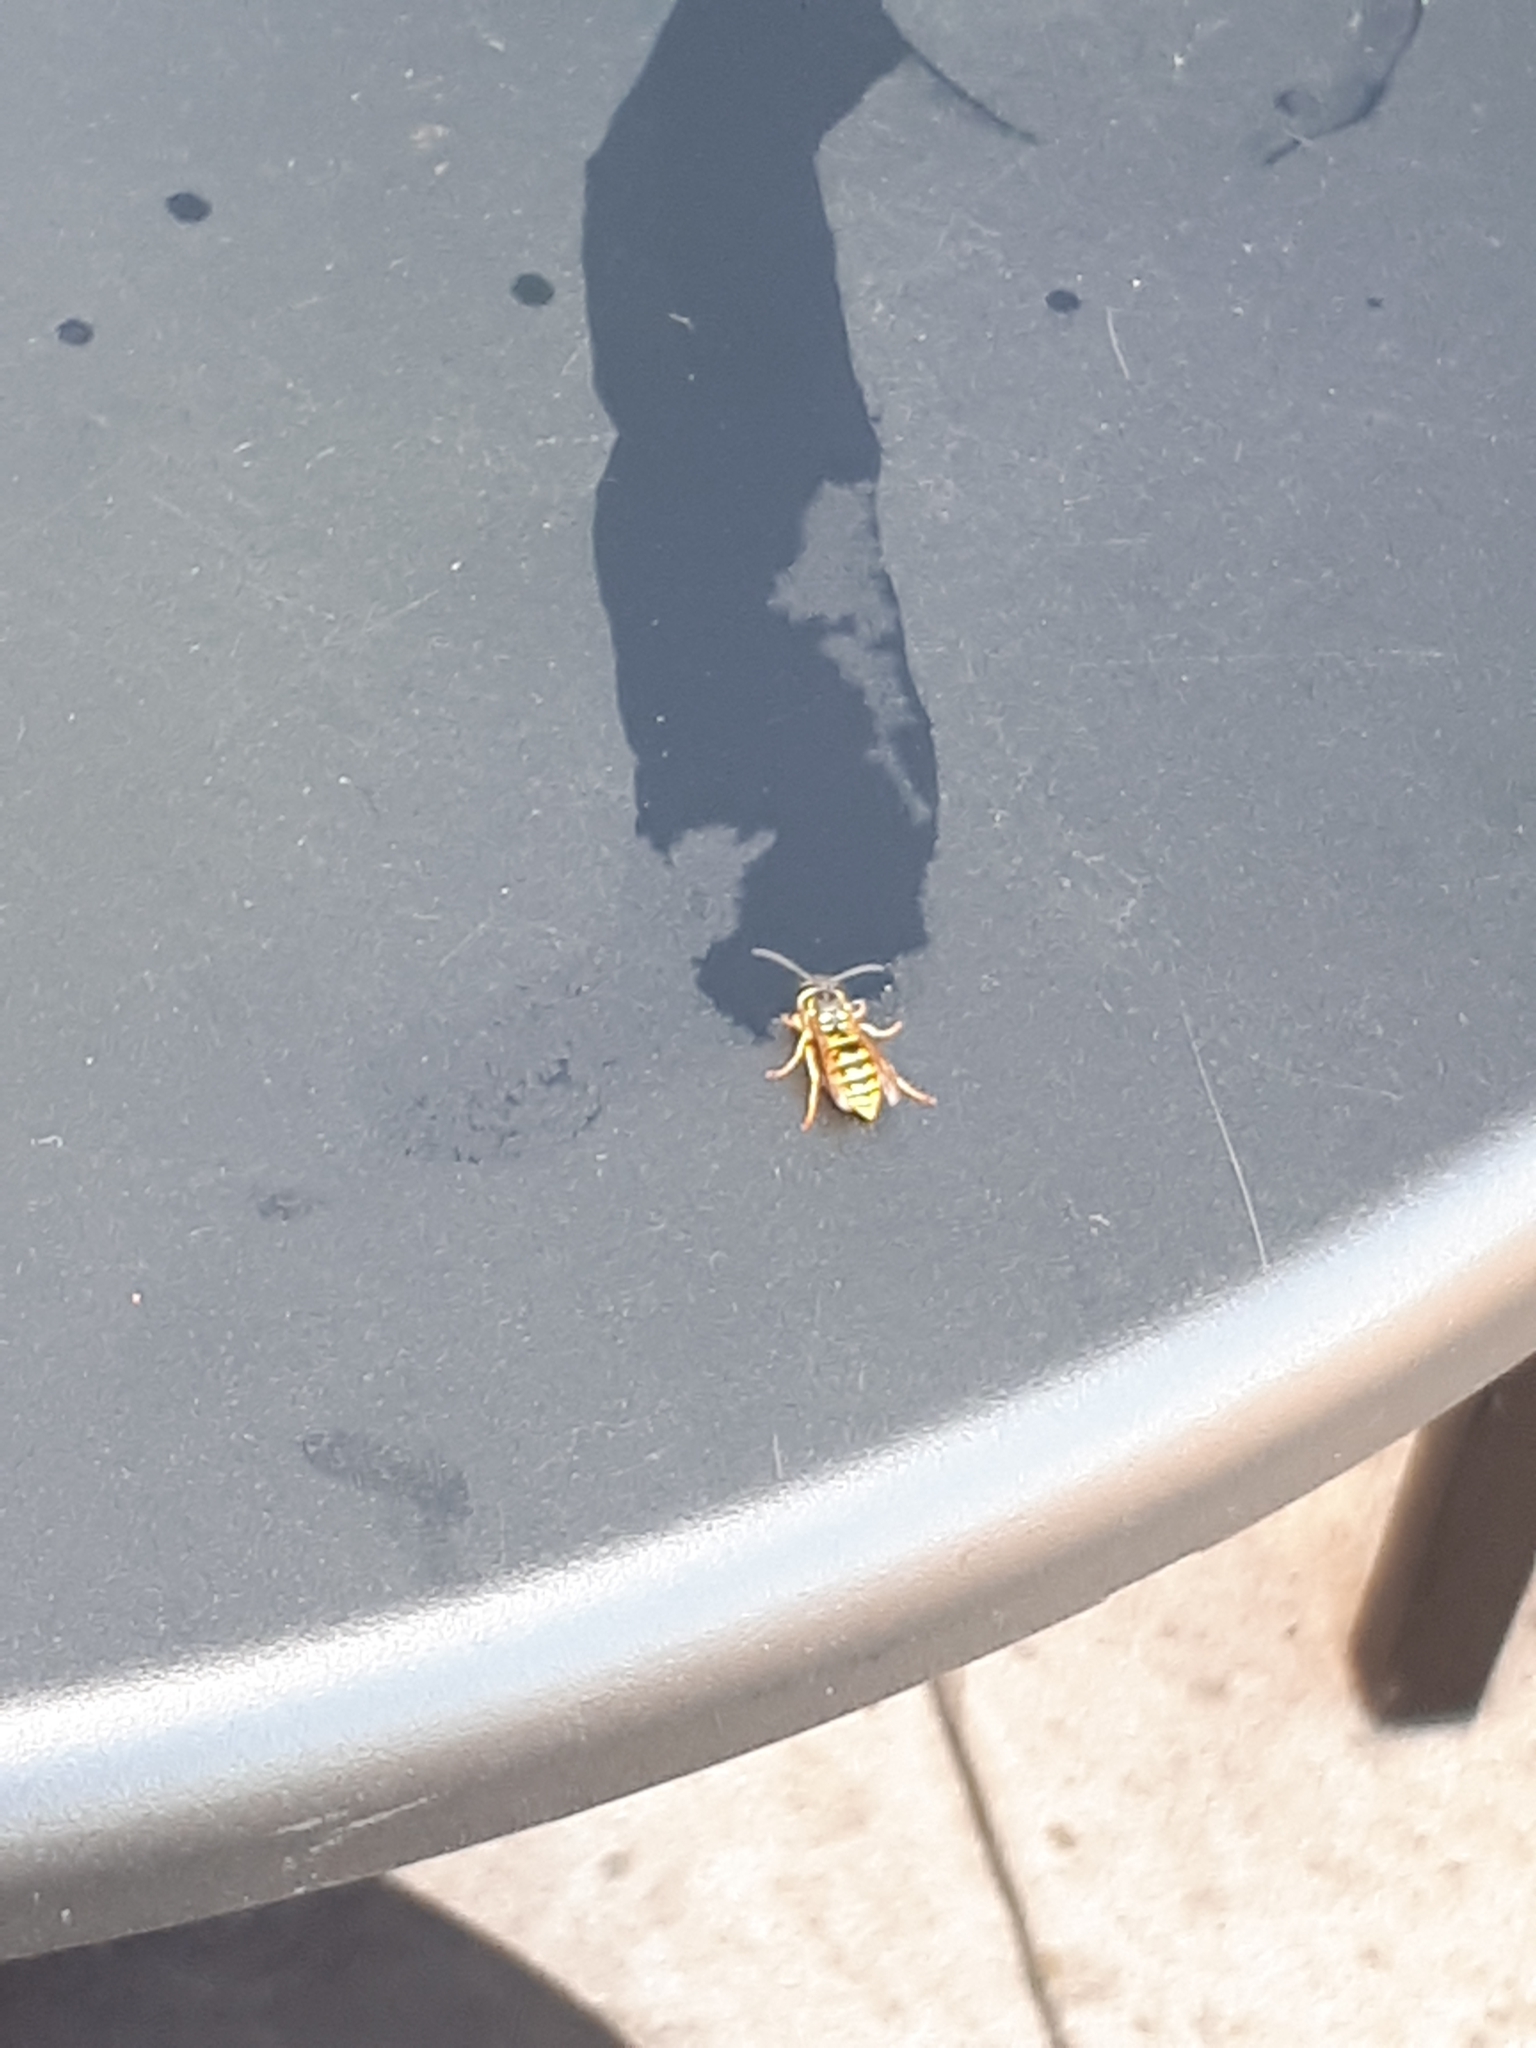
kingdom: Animalia
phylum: Arthropoda
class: Insecta
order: Hymenoptera
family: Vespidae
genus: Vespula
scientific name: Vespula germanica
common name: German wasp
